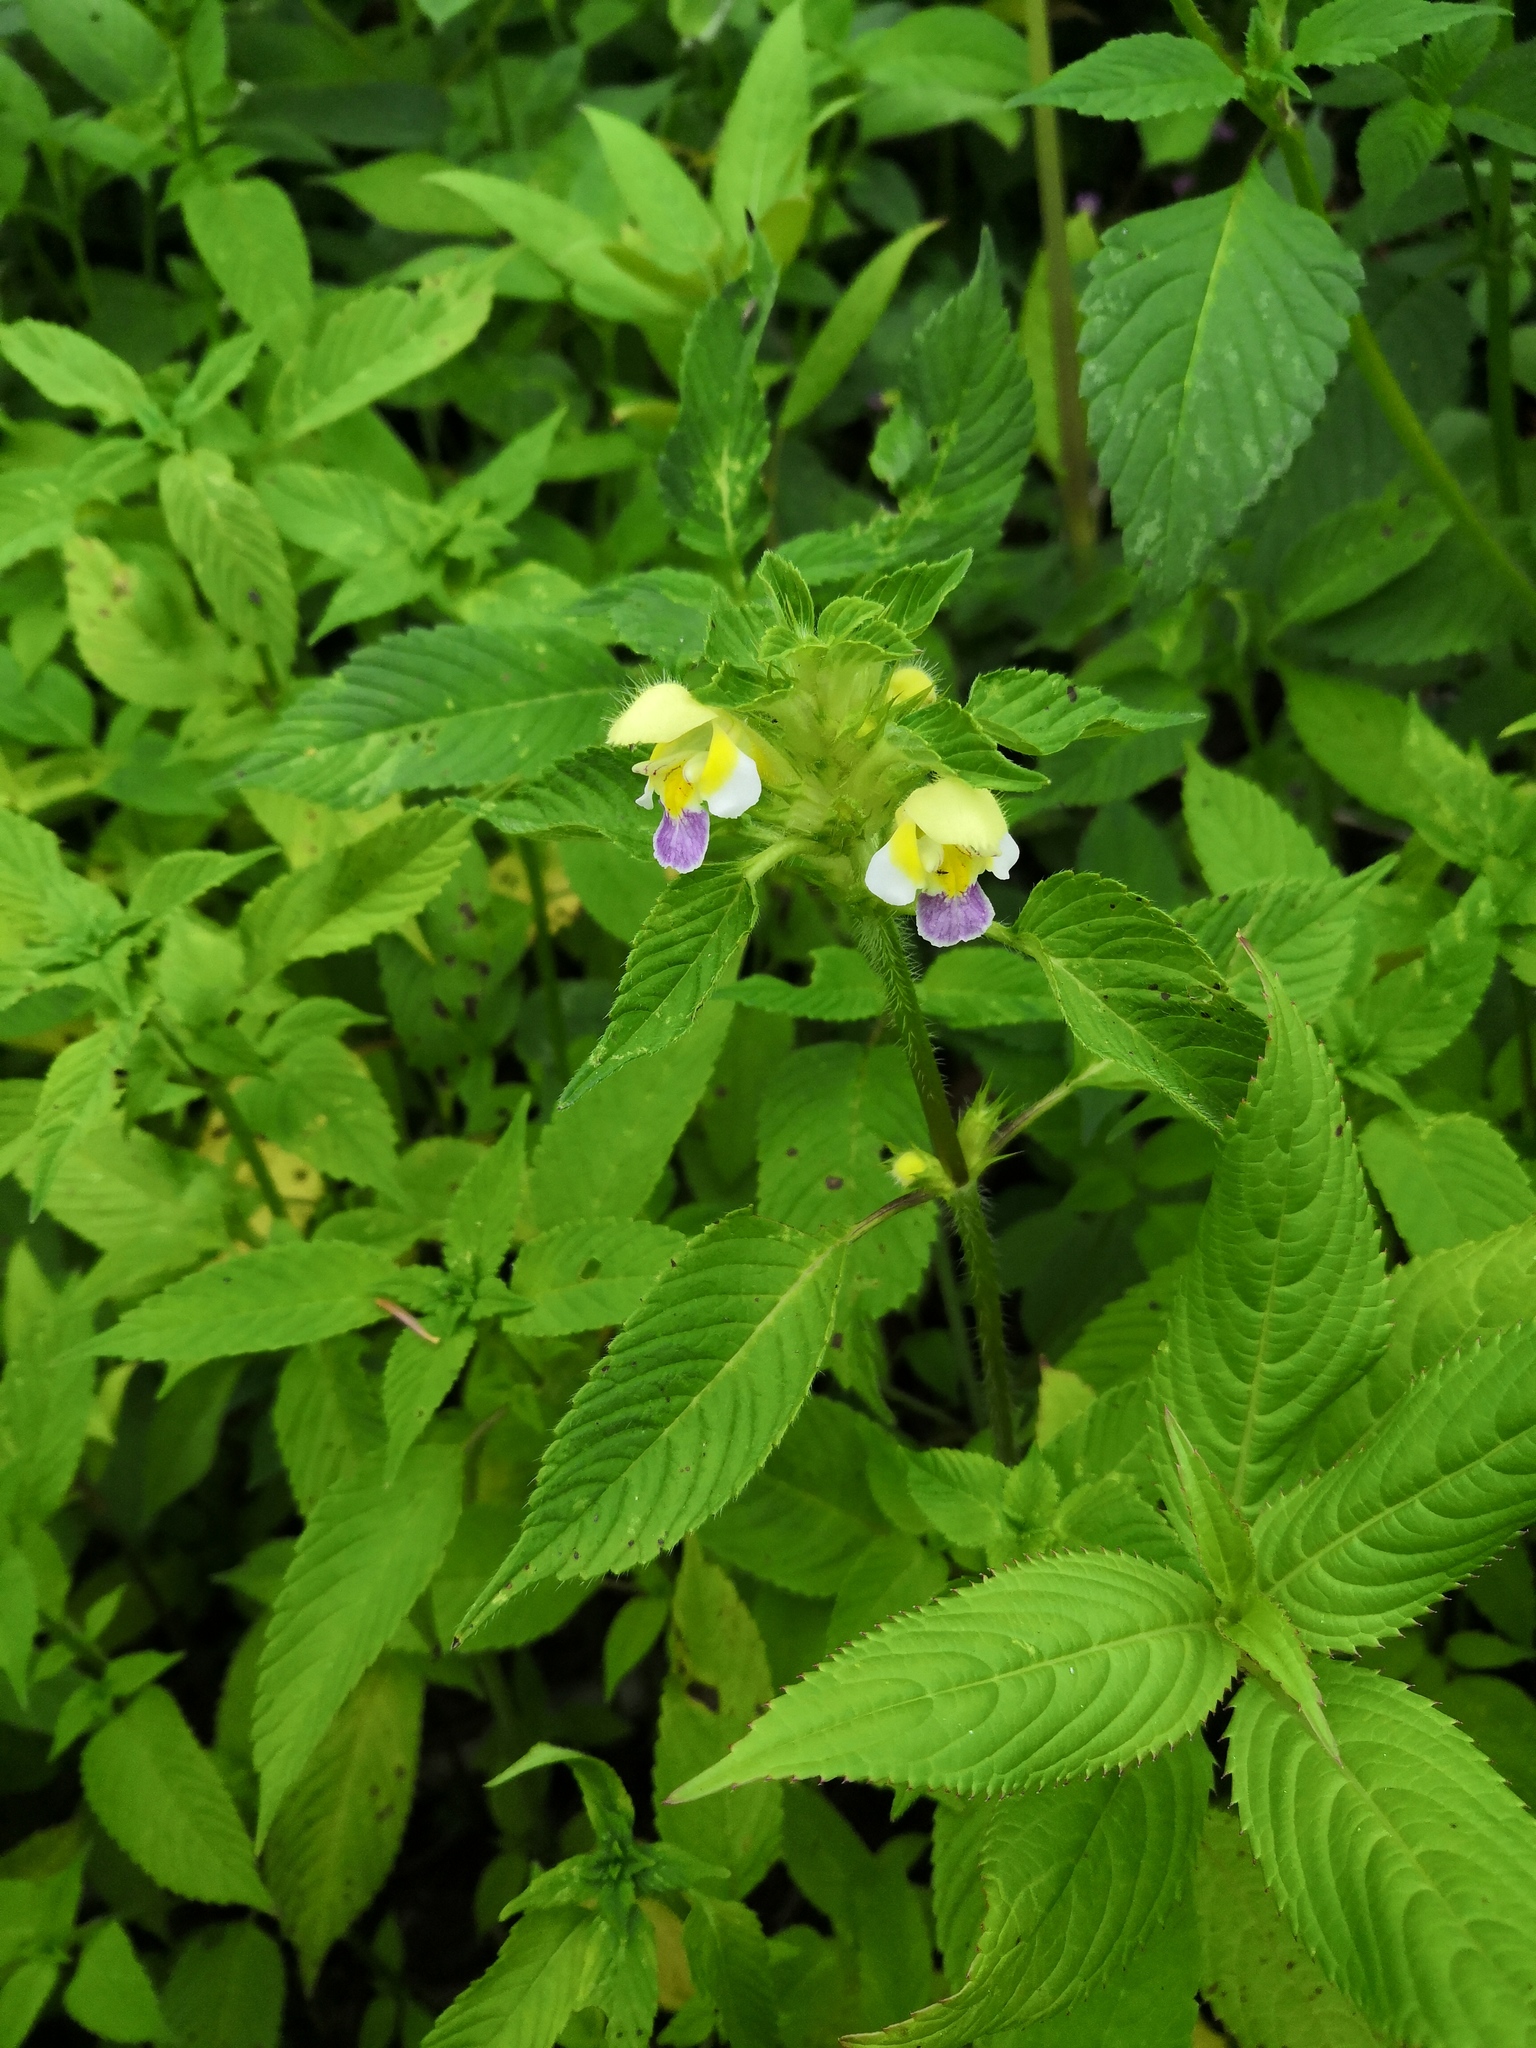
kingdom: Plantae
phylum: Tracheophyta
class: Magnoliopsida
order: Lamiales
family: Lamiaceae
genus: Galeopsis
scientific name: Galeopsis speciosa
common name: Large-flowered hemp-nettle
